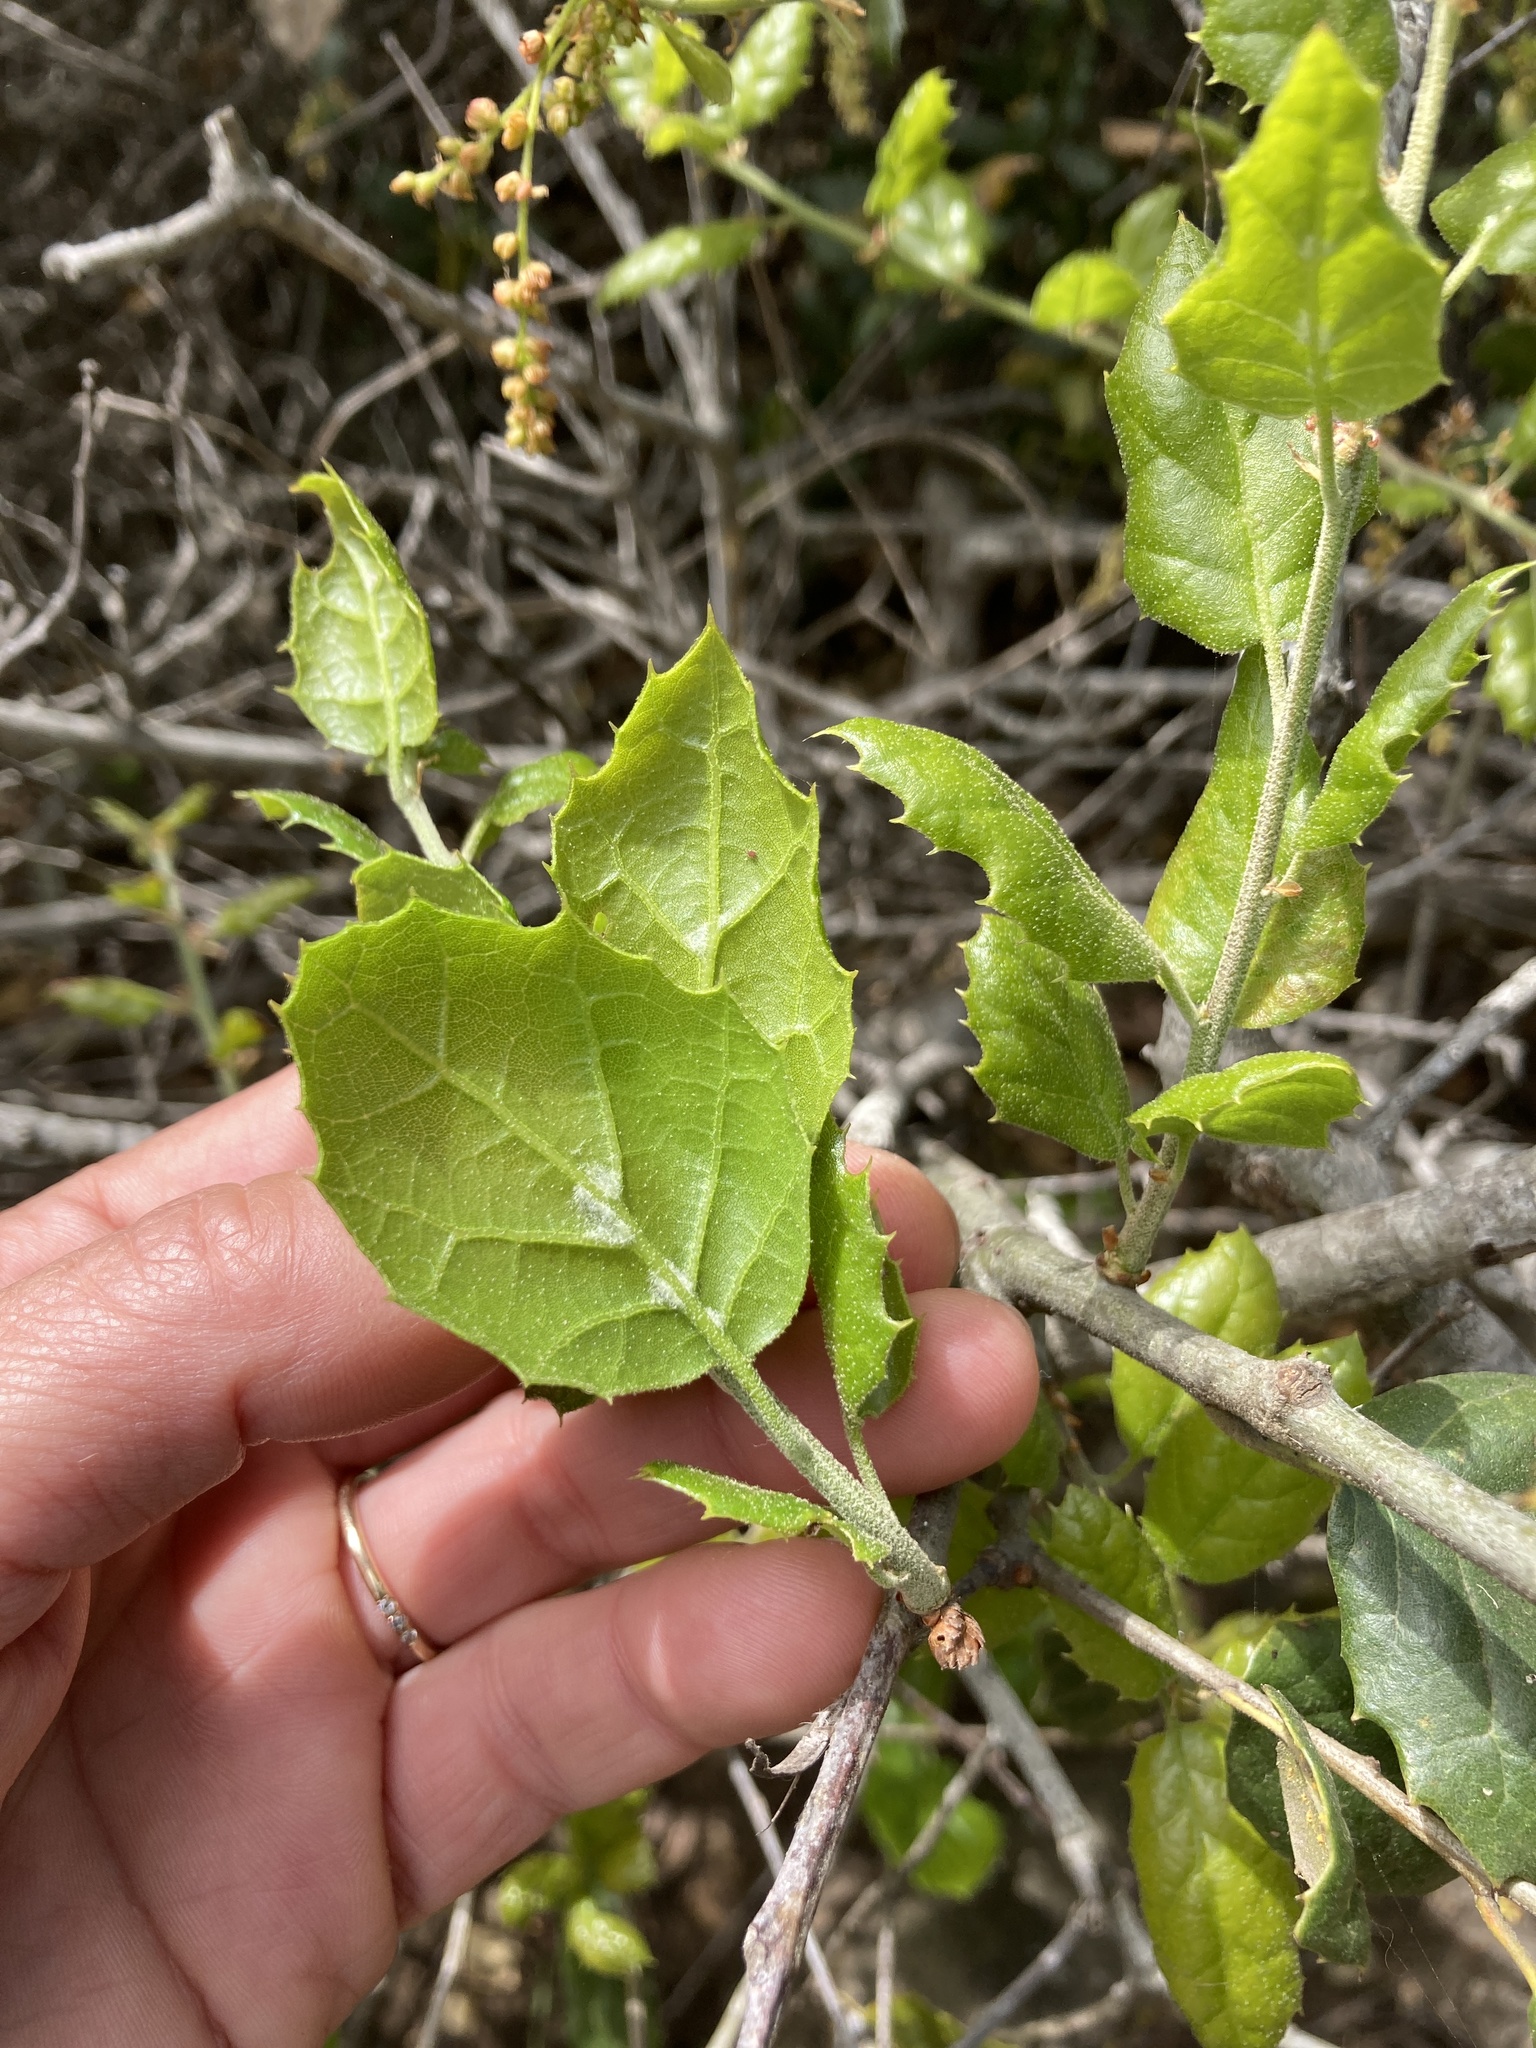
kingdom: Plantae
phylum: Tracheophyta
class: Magnoliopsida
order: Fagales
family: Fagaceae
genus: Quercus
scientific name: Quercus agrifolia
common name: California live oak
